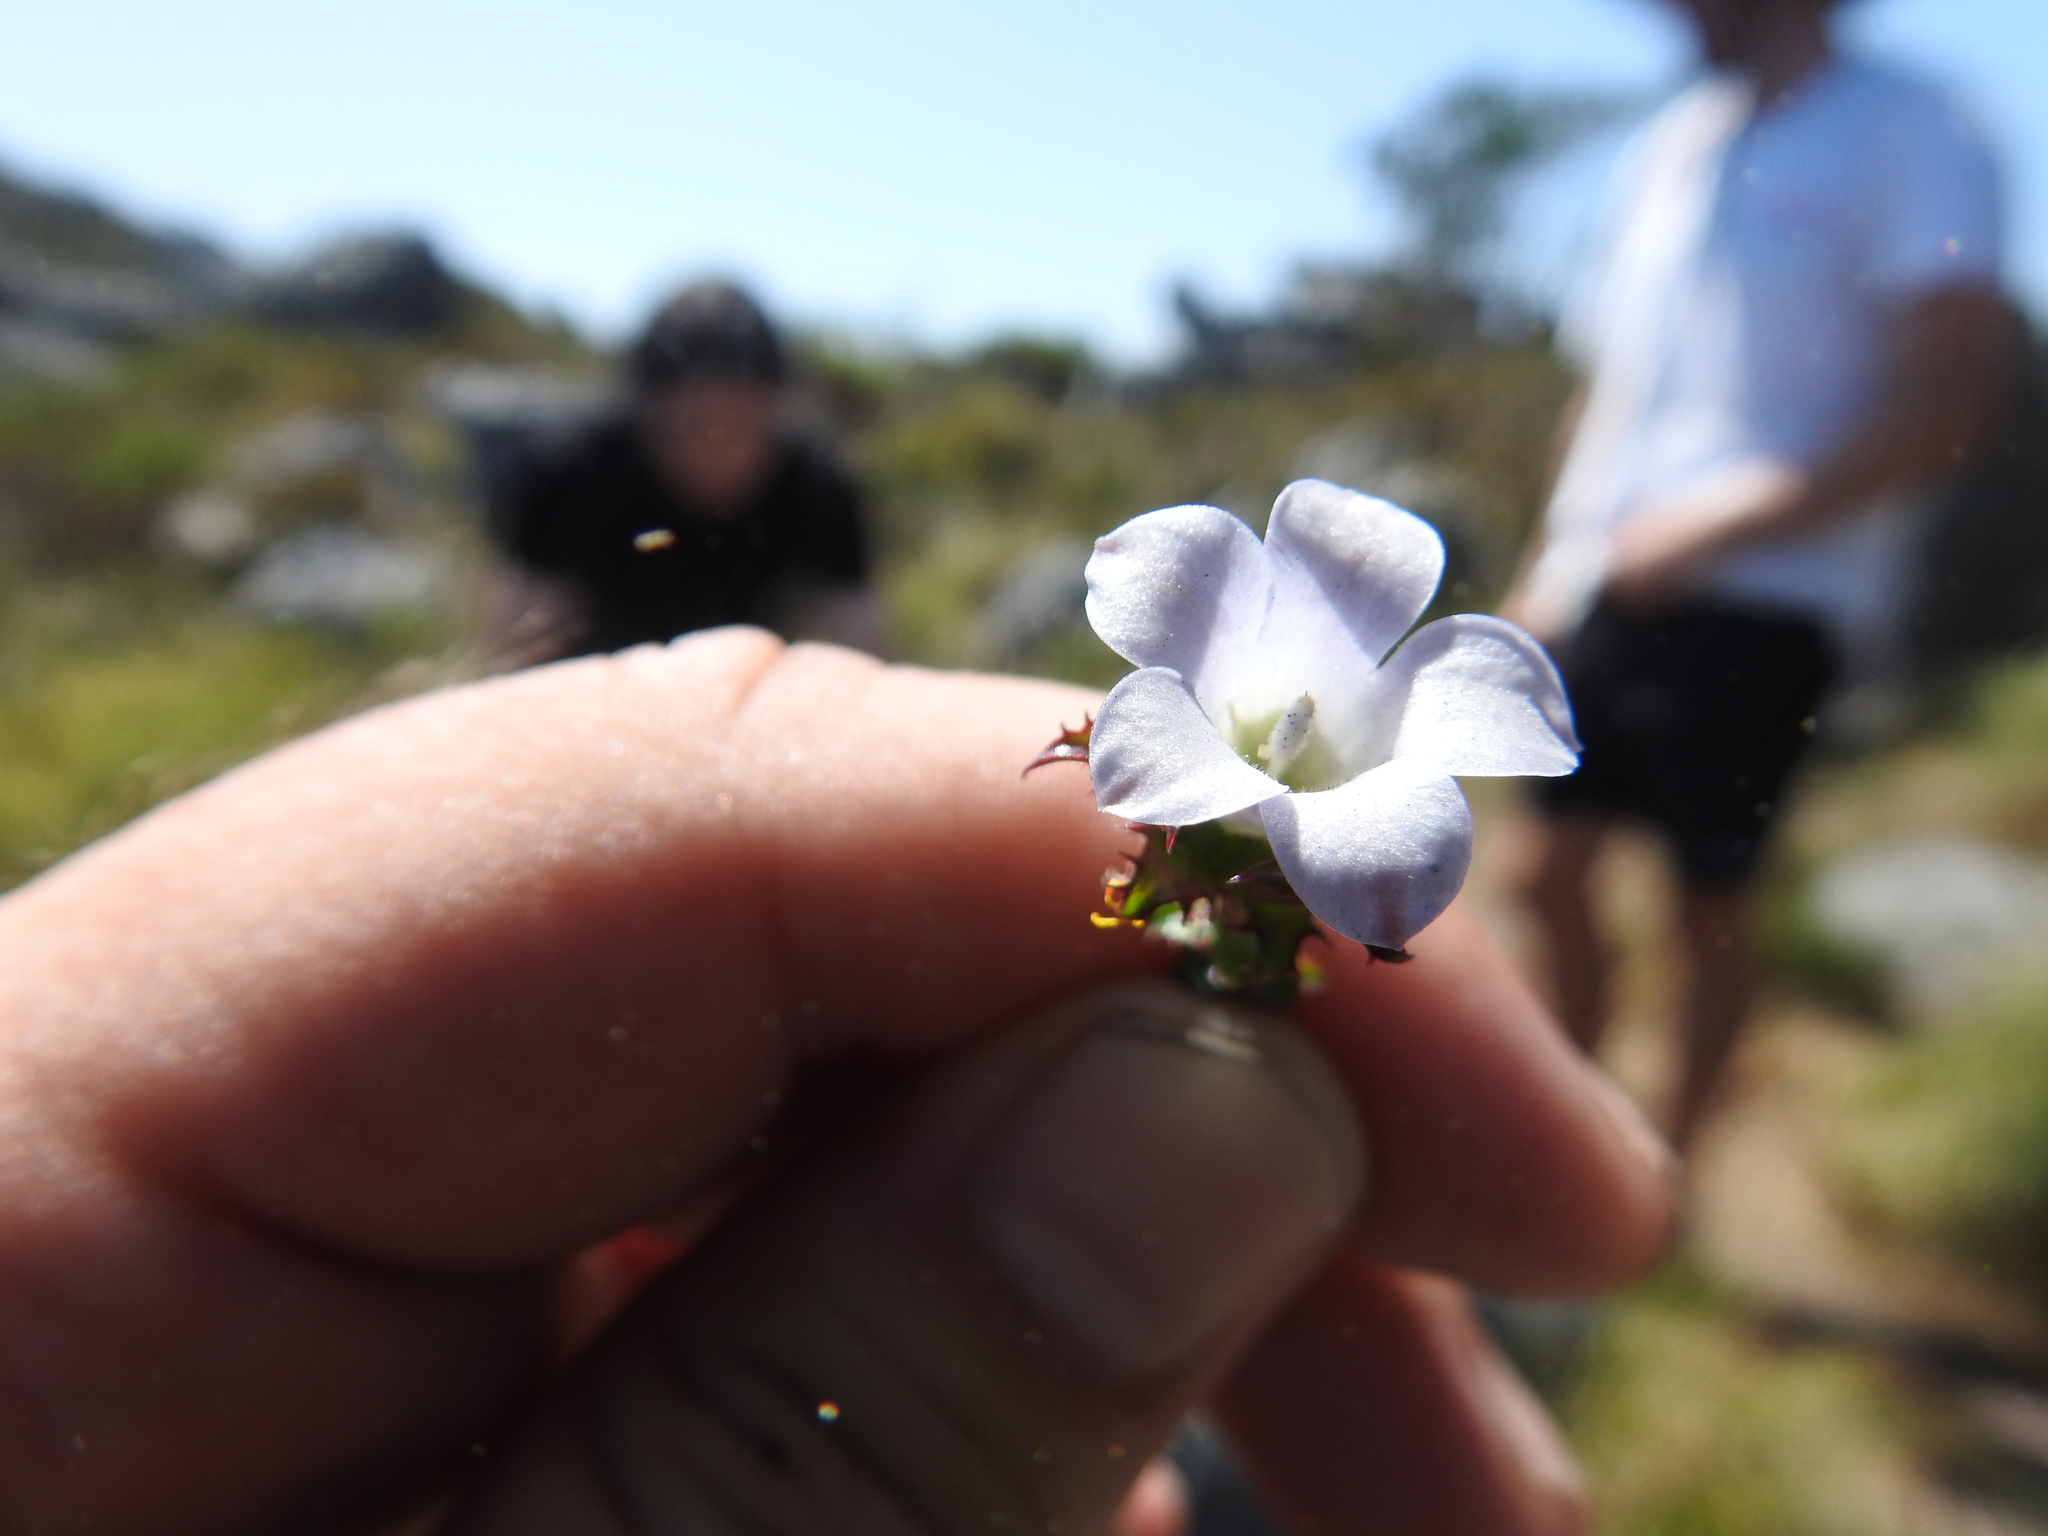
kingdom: Plantae
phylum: Tracheophyta
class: Magnoliopsida
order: Asterales
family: Campanulaceae
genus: Roella
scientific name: Roella amplexicaulis
